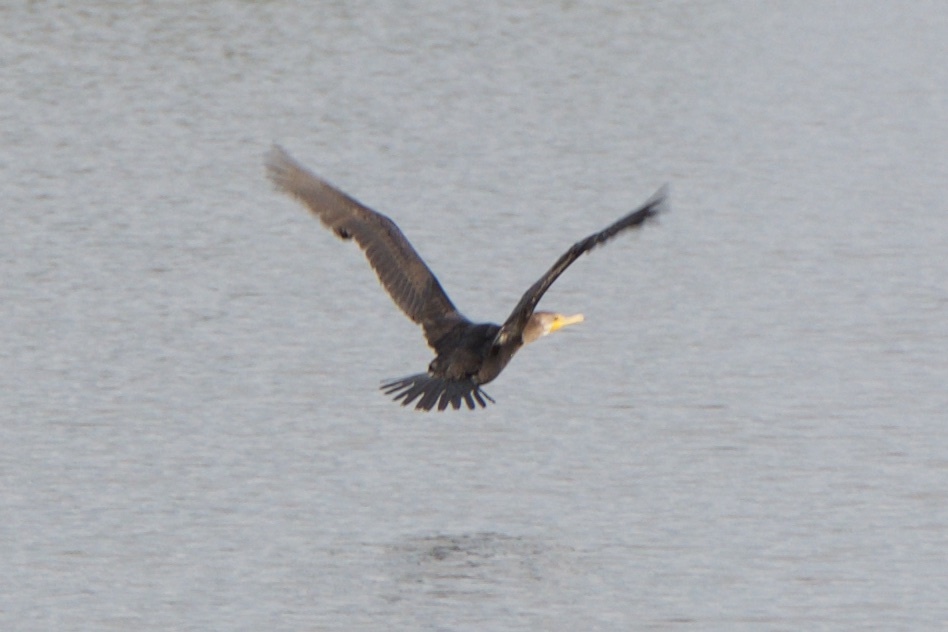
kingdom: Animalia
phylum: Chordata
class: Aves
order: Suliformes
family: Phalacrocoracidae
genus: Phalacrocorax
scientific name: Phalacrocorax auritus
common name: Double-crested cormorant
